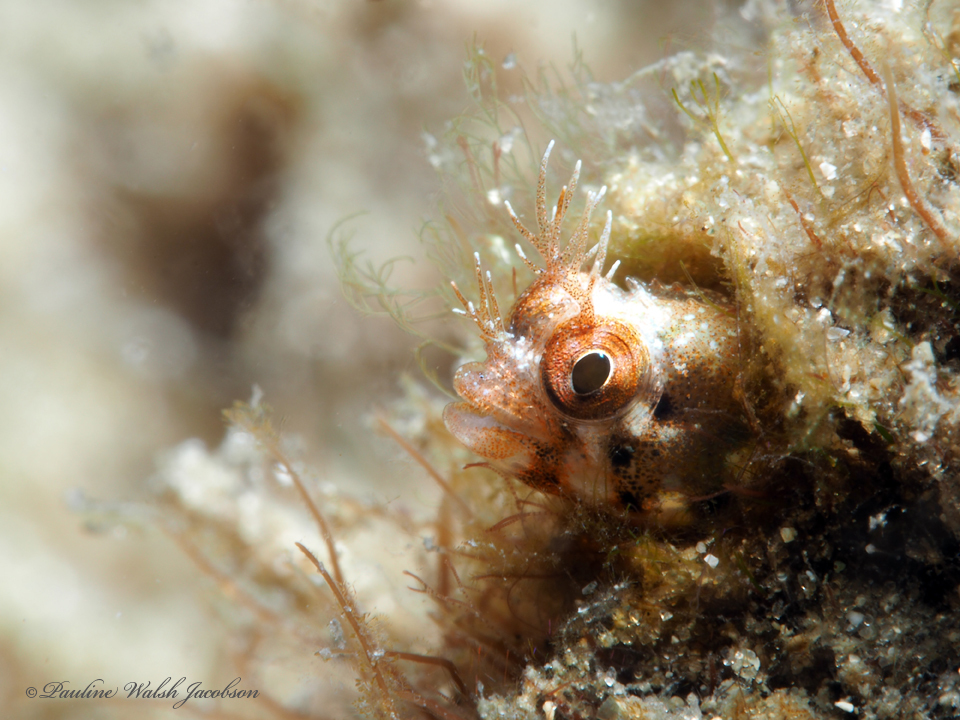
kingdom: Animalia
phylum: Chordata
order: Perciformes
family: Chaenopsidae
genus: Acanthemblemaria
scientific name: Acanthemblemaria aspera
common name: Roughhead blenny
